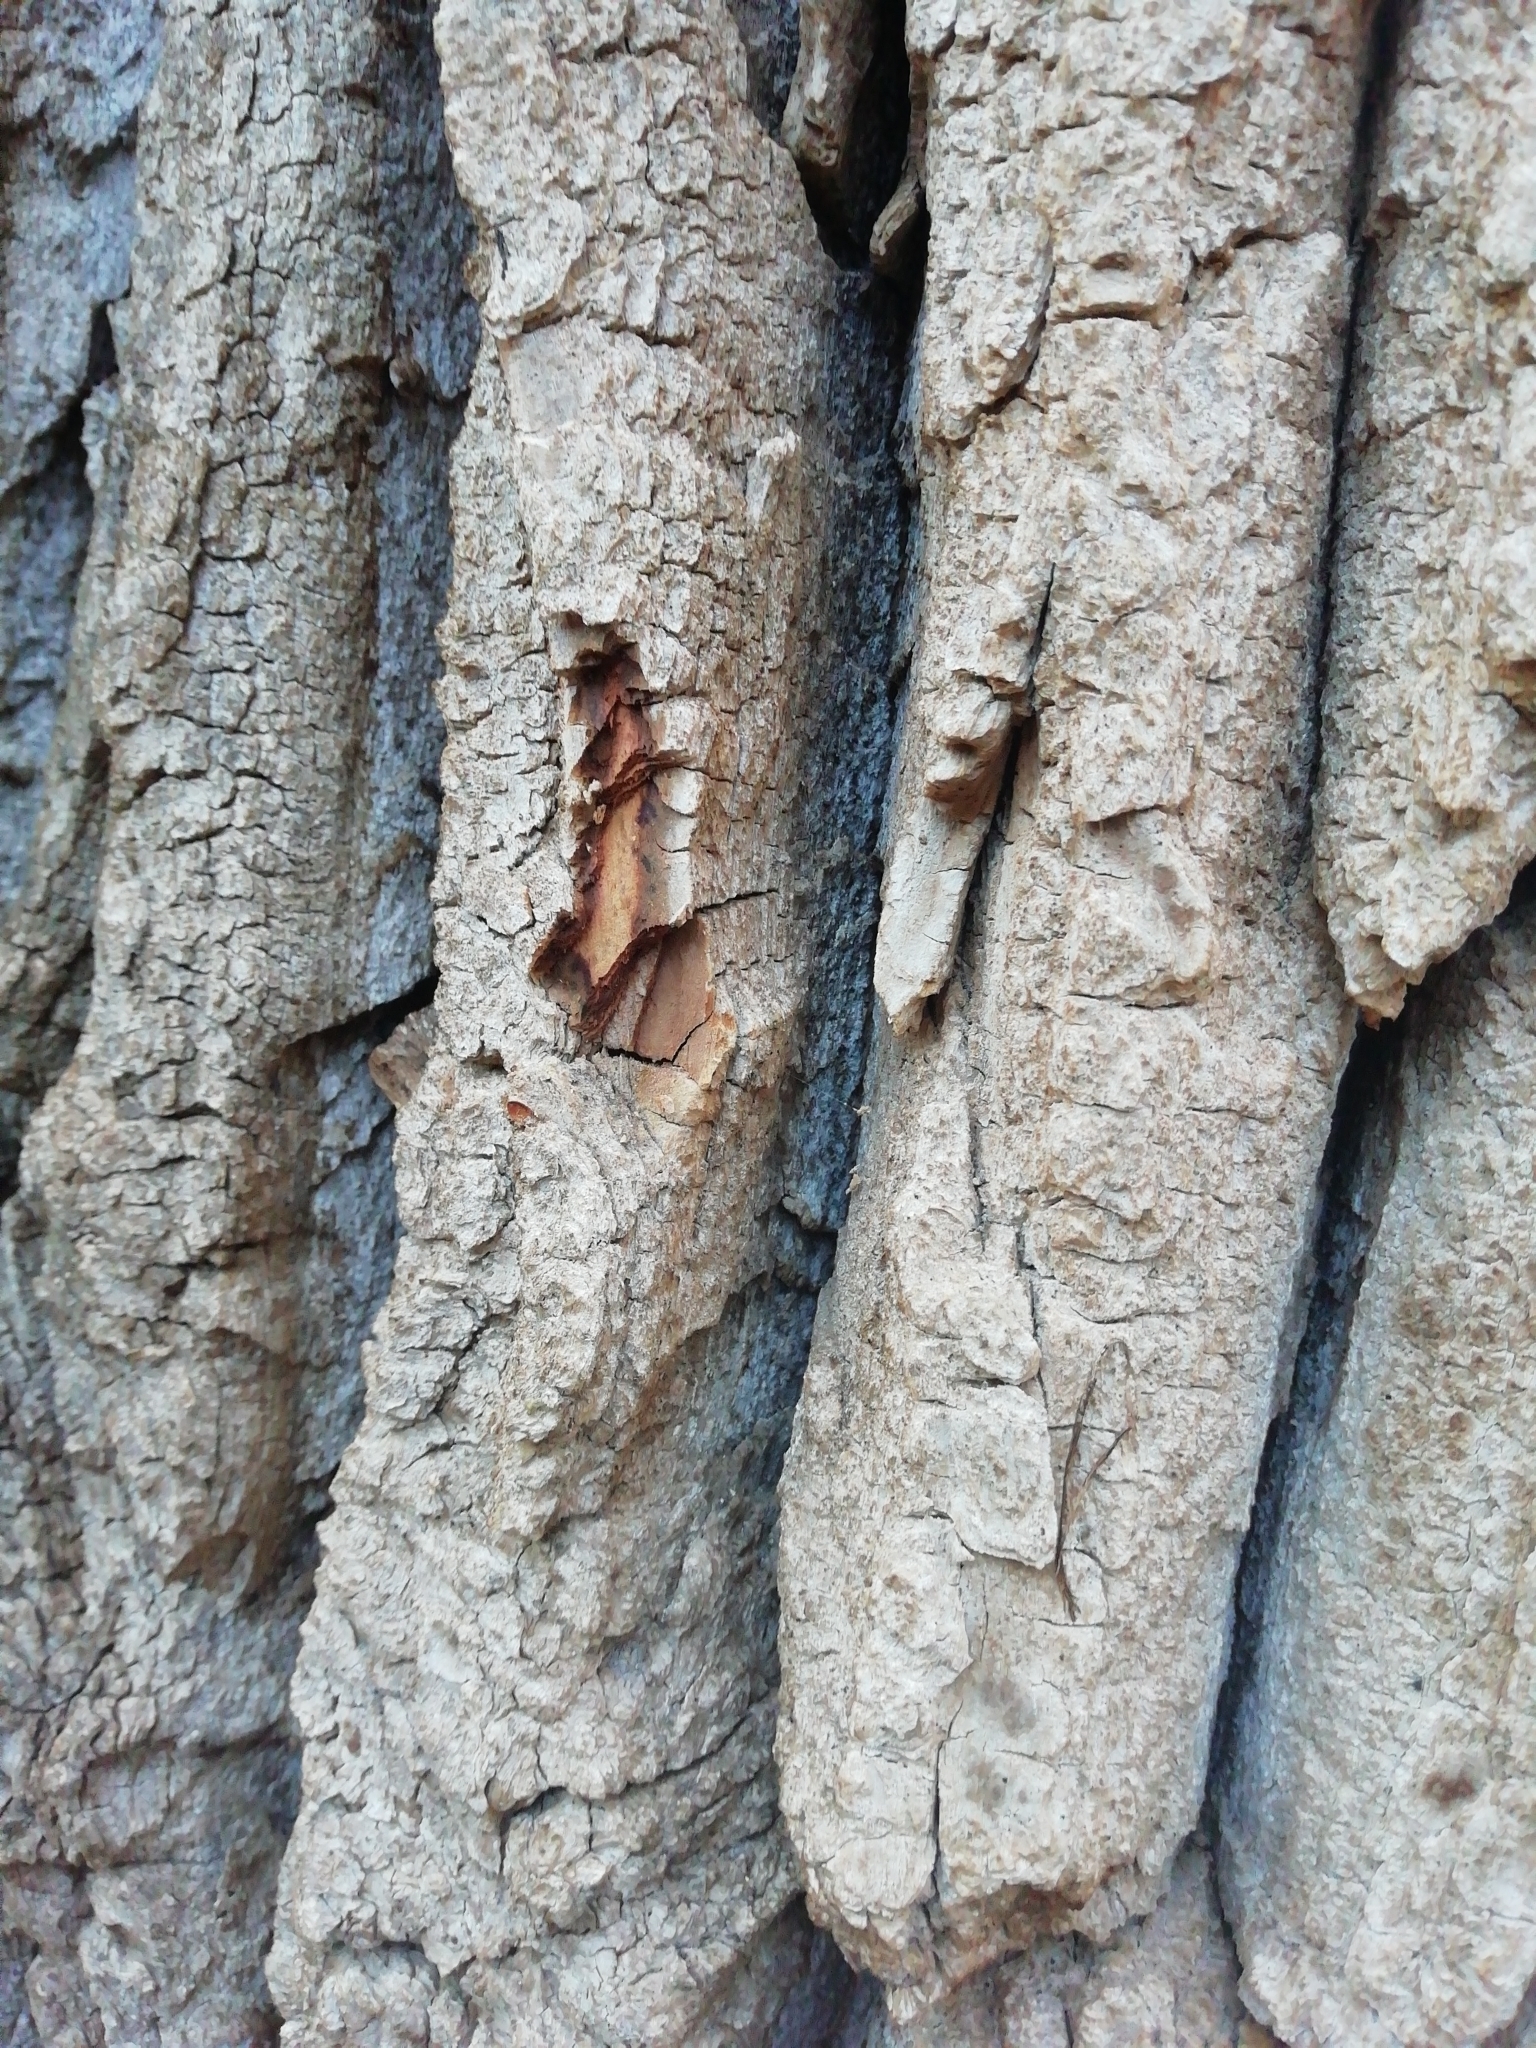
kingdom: Plantae
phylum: Tracheophyta
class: Magnoliopsida
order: Fagales
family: Fagaceae
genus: Quercus
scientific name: Quercus suber
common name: Cork oak
